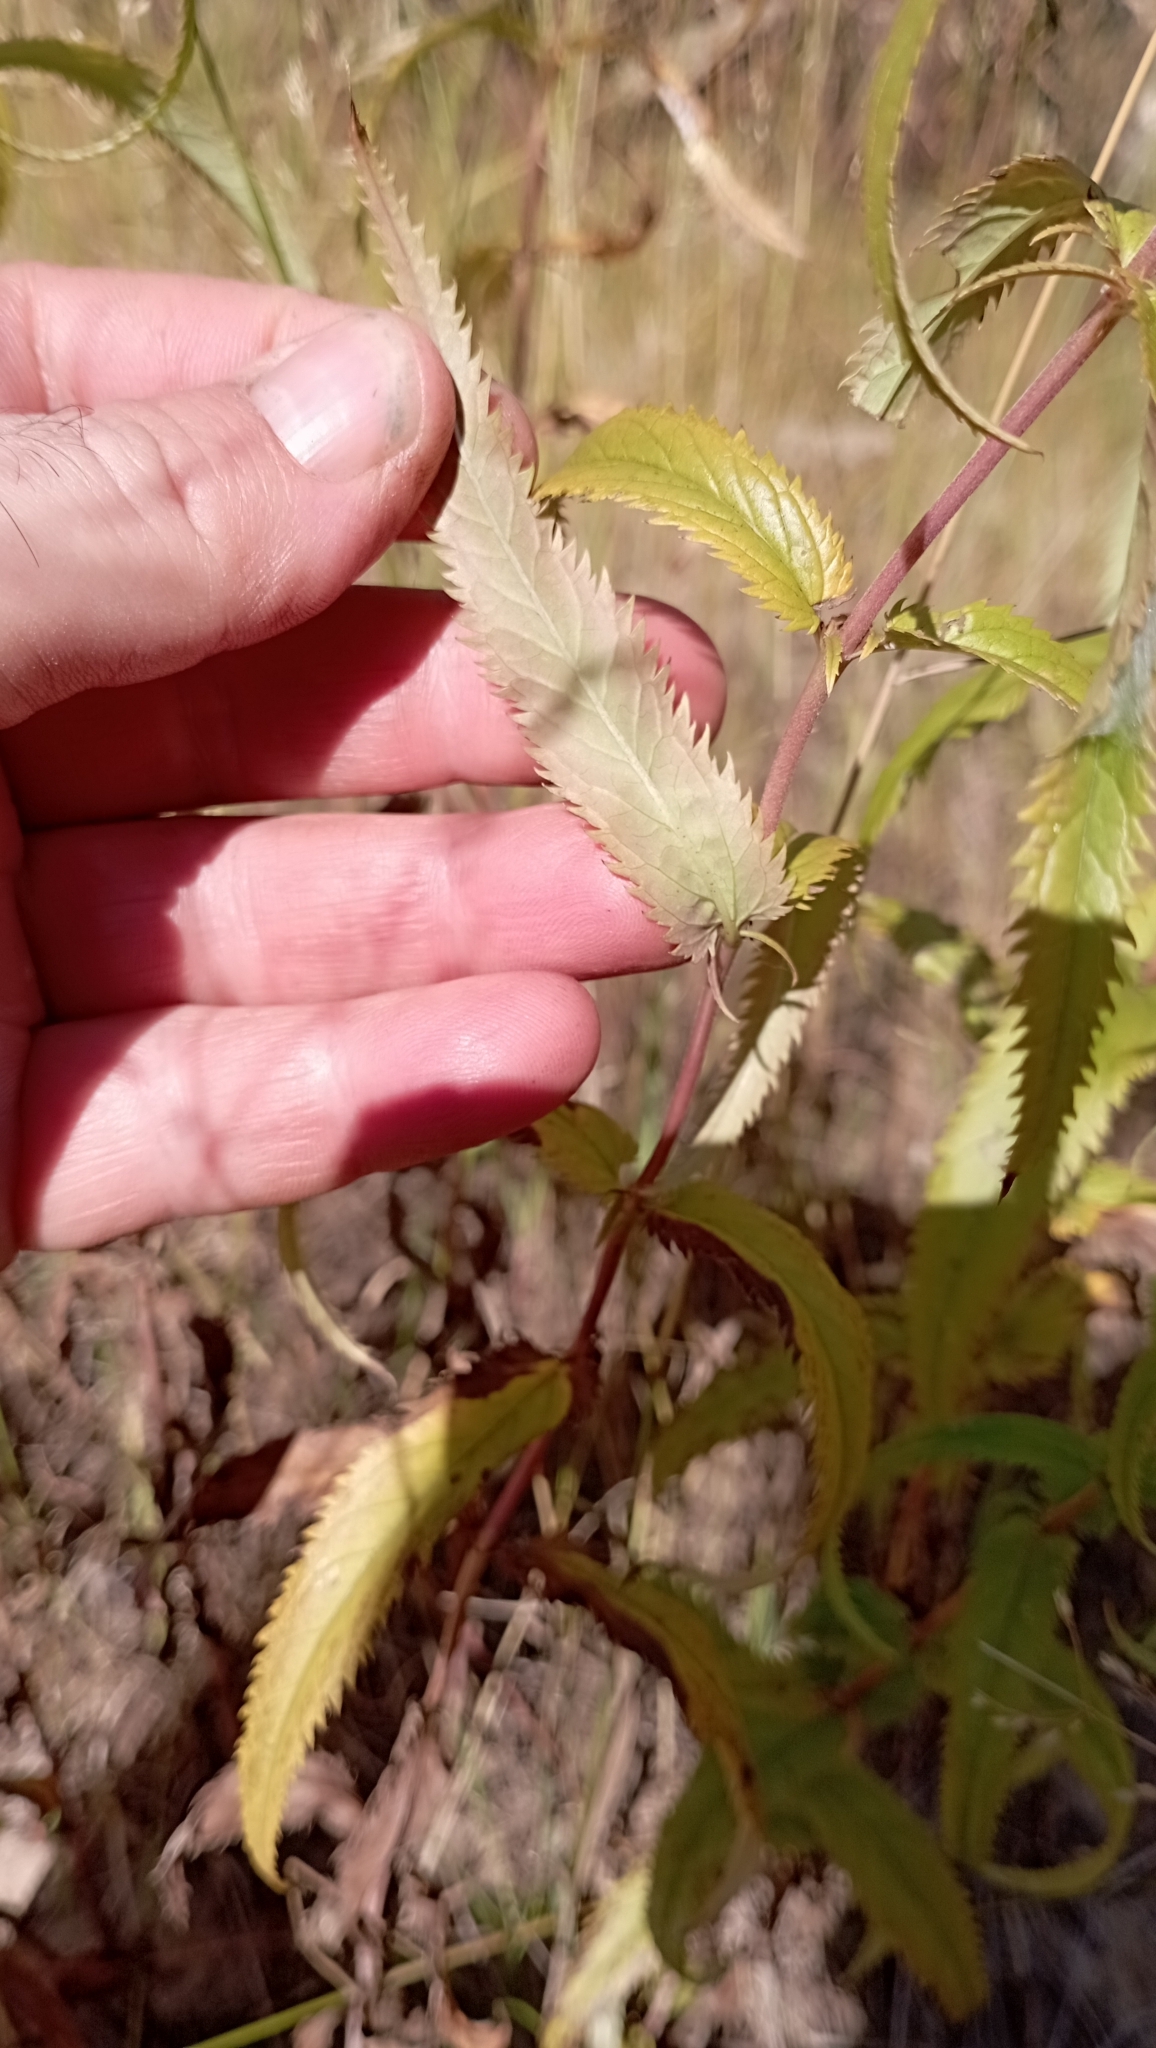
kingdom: Plantae
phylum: Tracheophyta
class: Magnoliopsida
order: Lamiales
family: Plantaginaceae
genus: Veronica
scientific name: Veronica longifolia
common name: Garden speedwell
